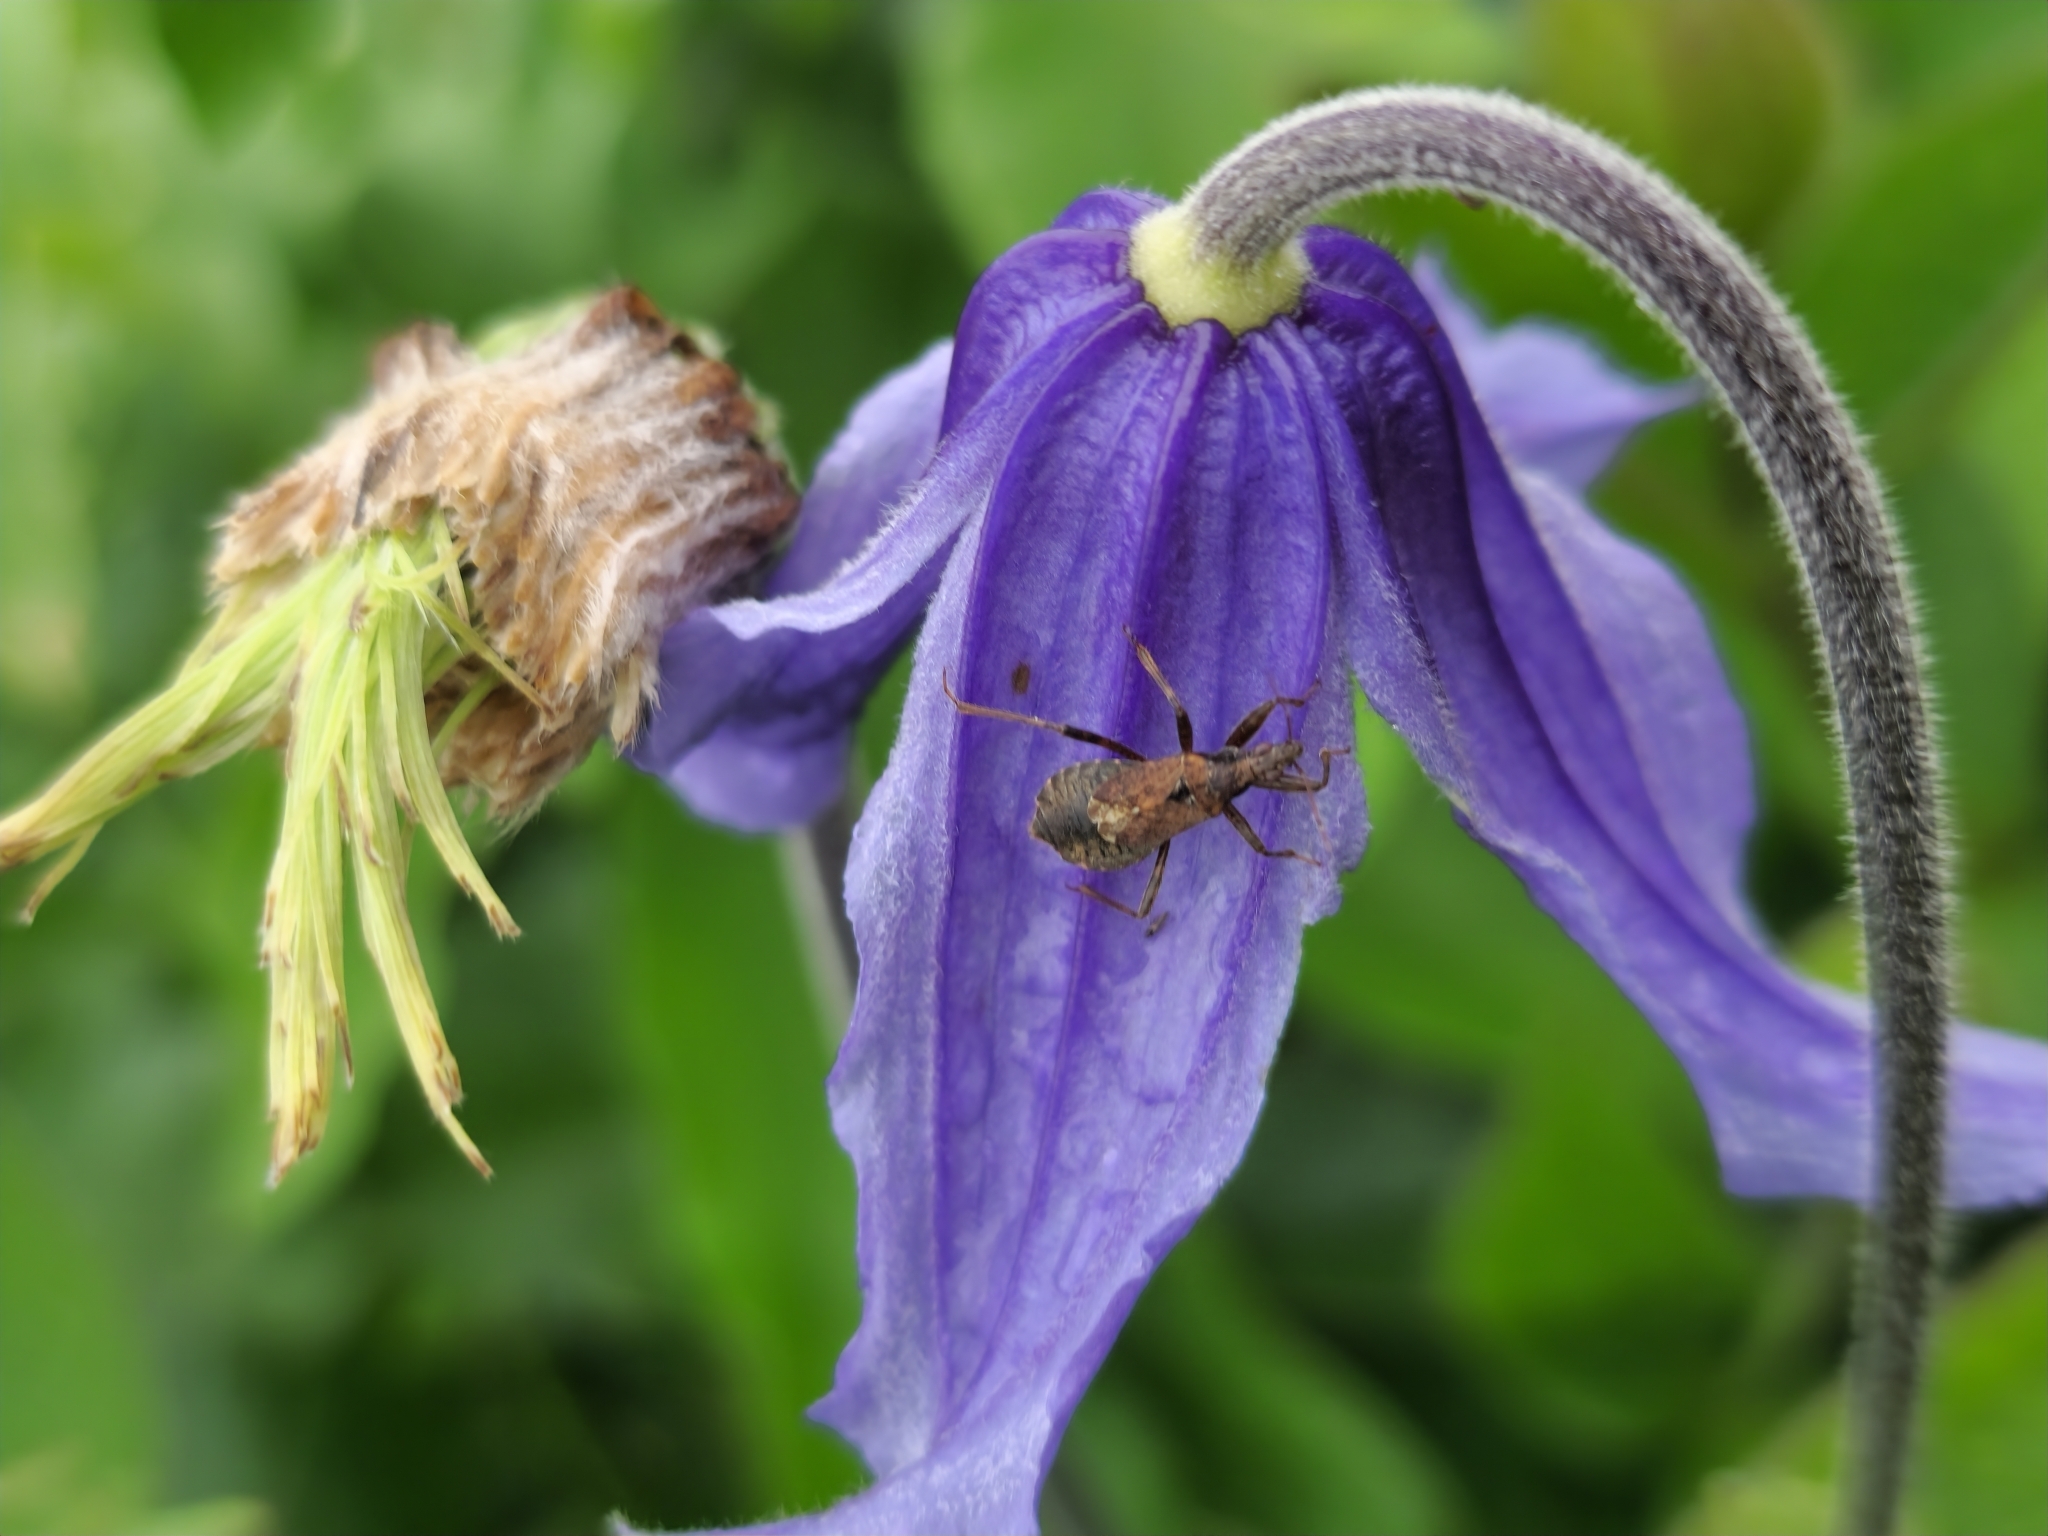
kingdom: Animalia
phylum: Arthropoda
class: Insecta
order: Hemiptera
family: Nabidae
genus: Himacerus
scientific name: Himacerus mirmicoides
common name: Ant damsel bug
